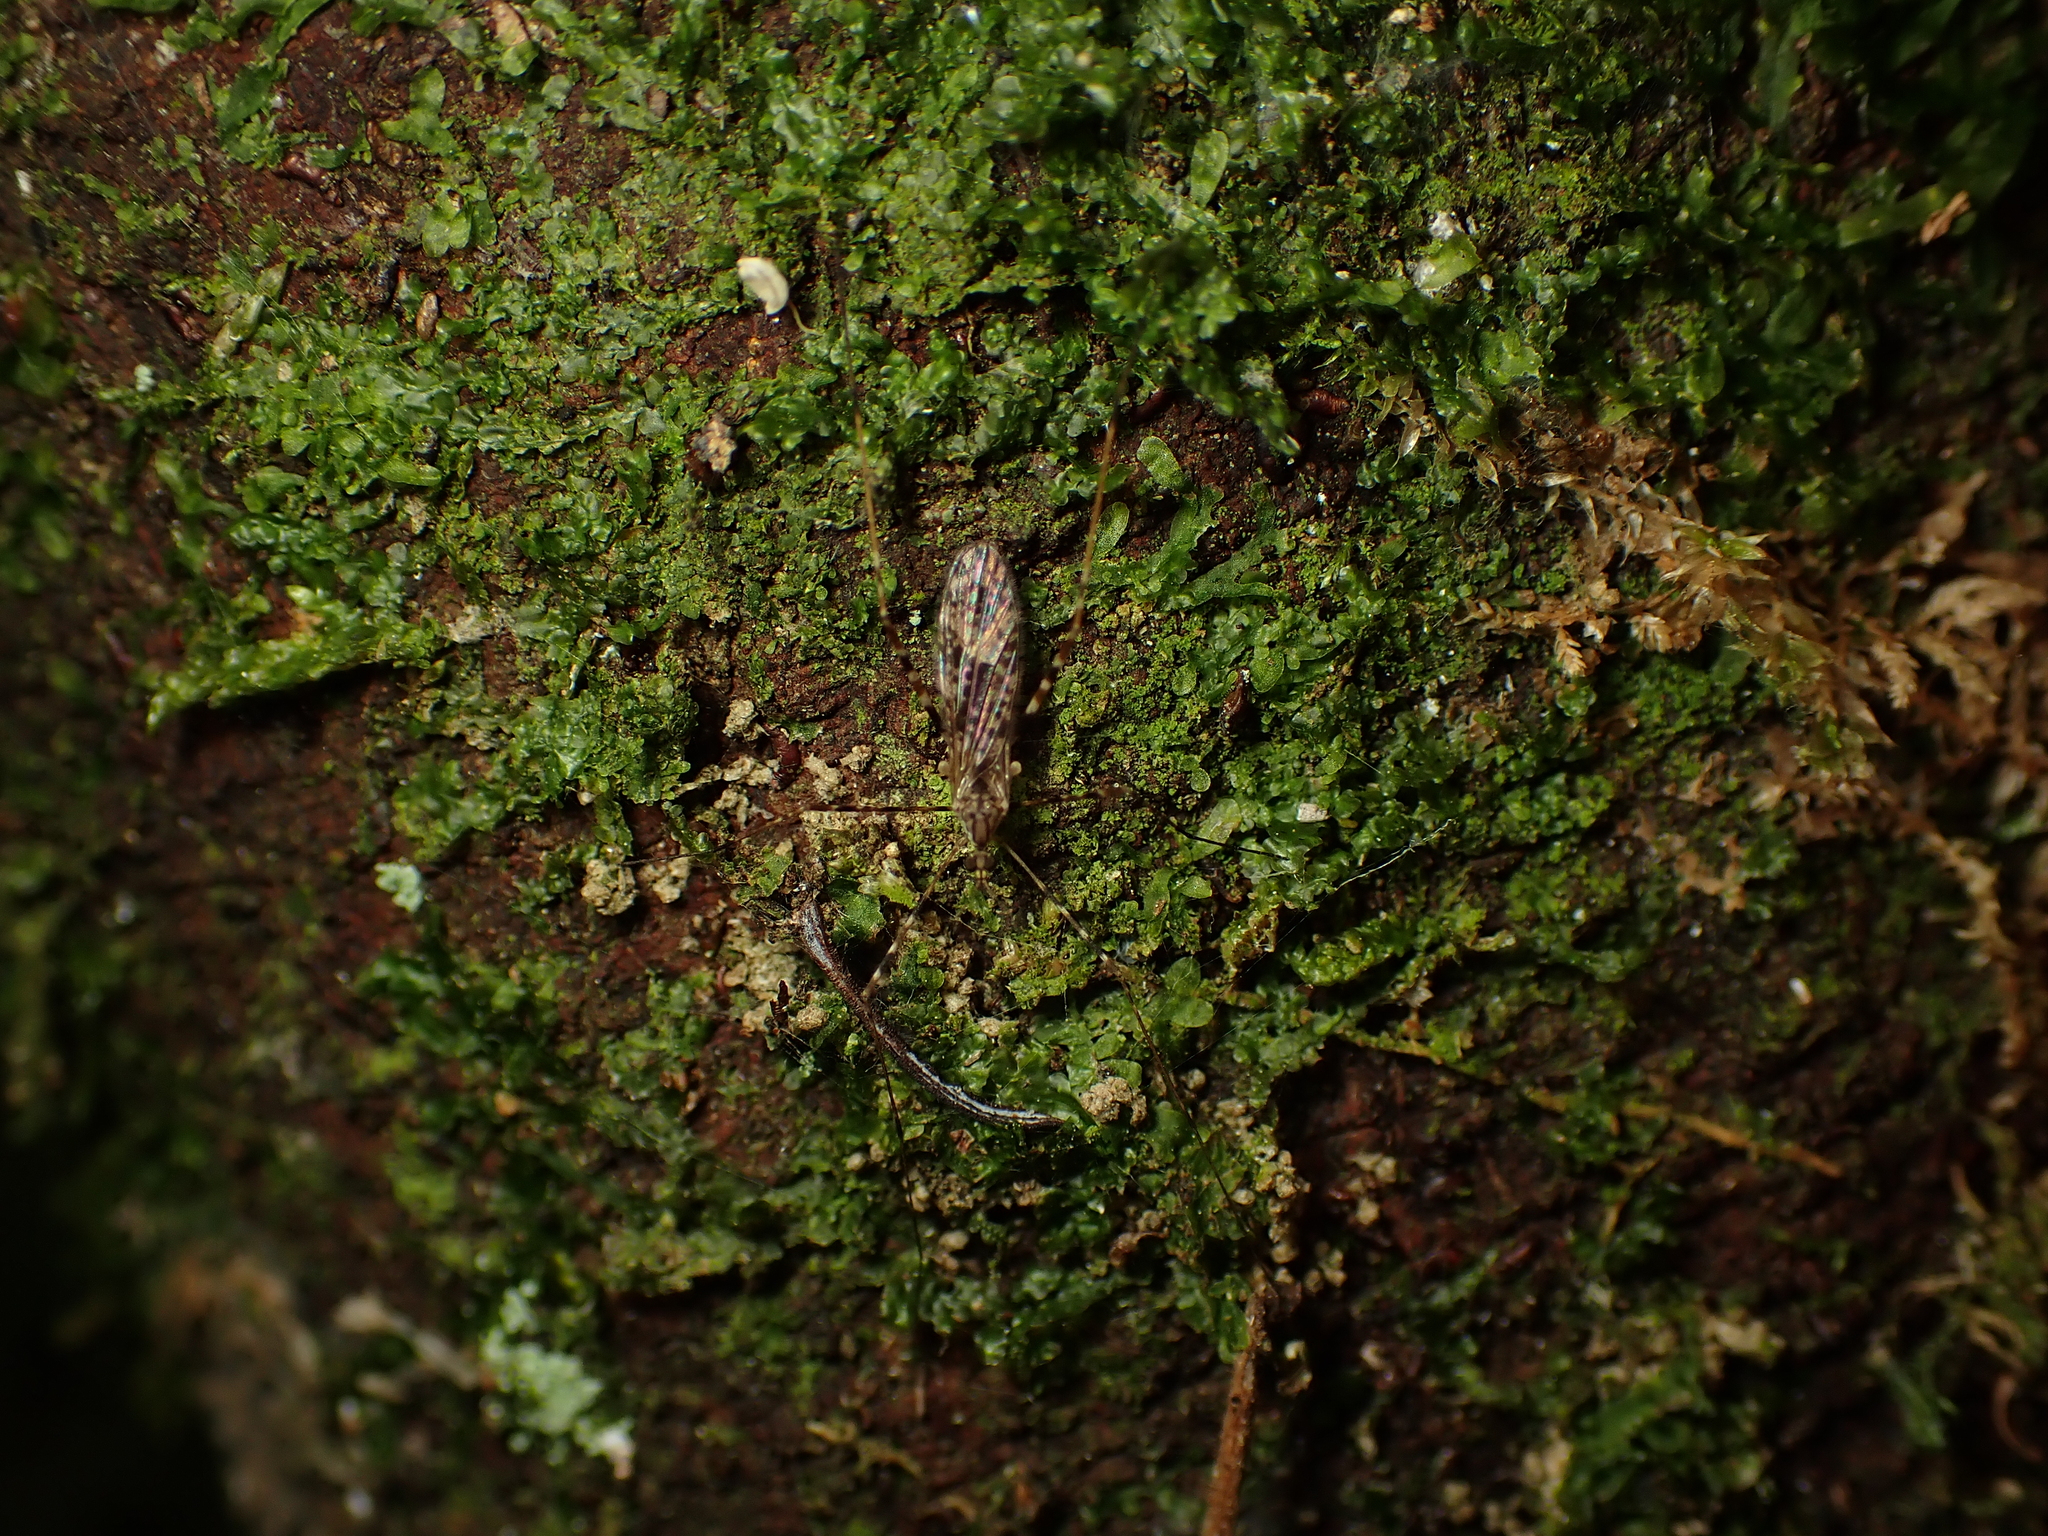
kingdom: Animalia
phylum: Arthropoda
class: Insecta
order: Diptera
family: Limoniidae
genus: Amphineurus
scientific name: Amphineurus hudsoni
